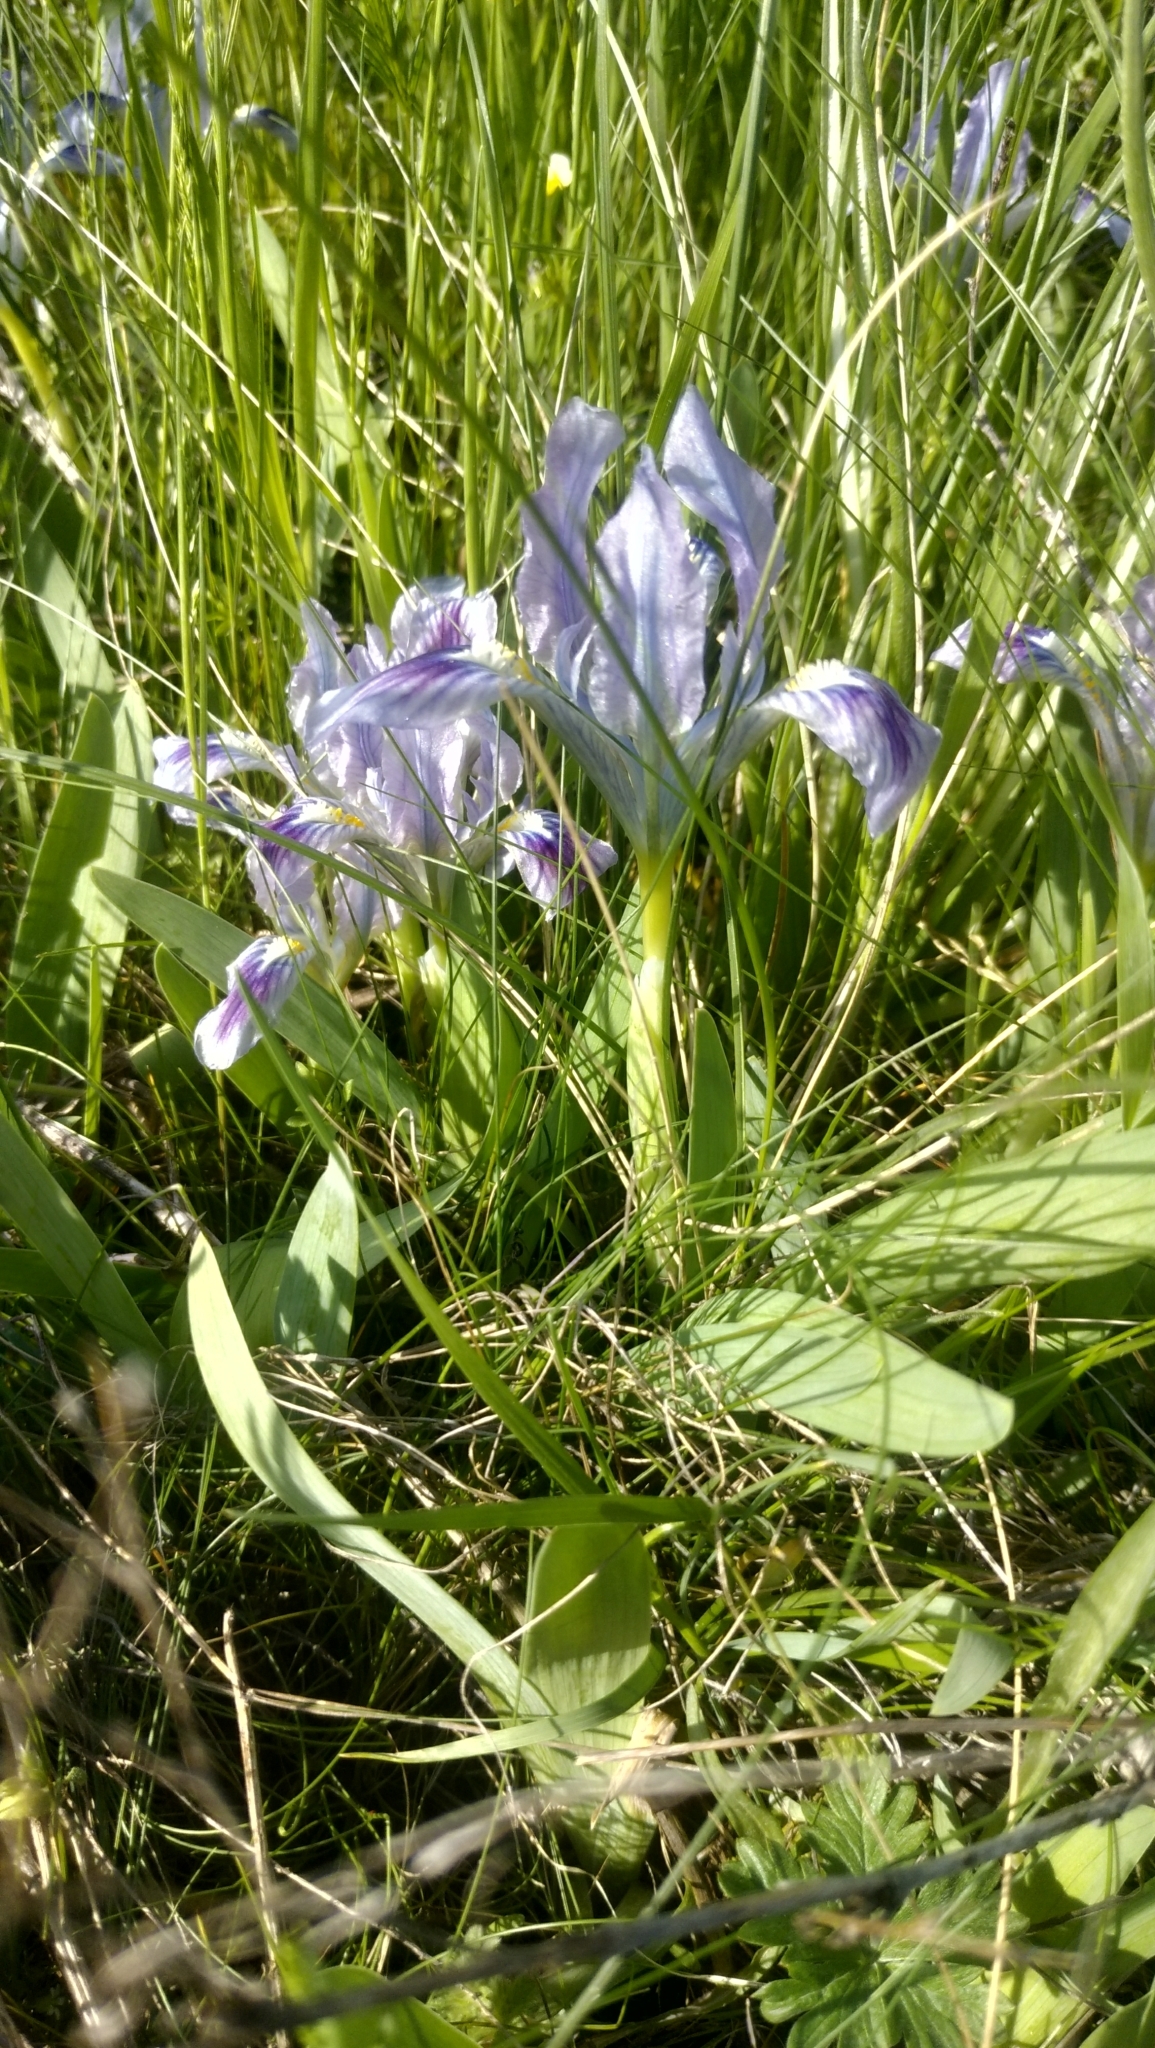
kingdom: Plantae
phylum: Tracheophyta
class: Liliopsida
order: Asparagales
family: Iridaceae
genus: Iris
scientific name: Iris pumila
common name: Dwarf iris
